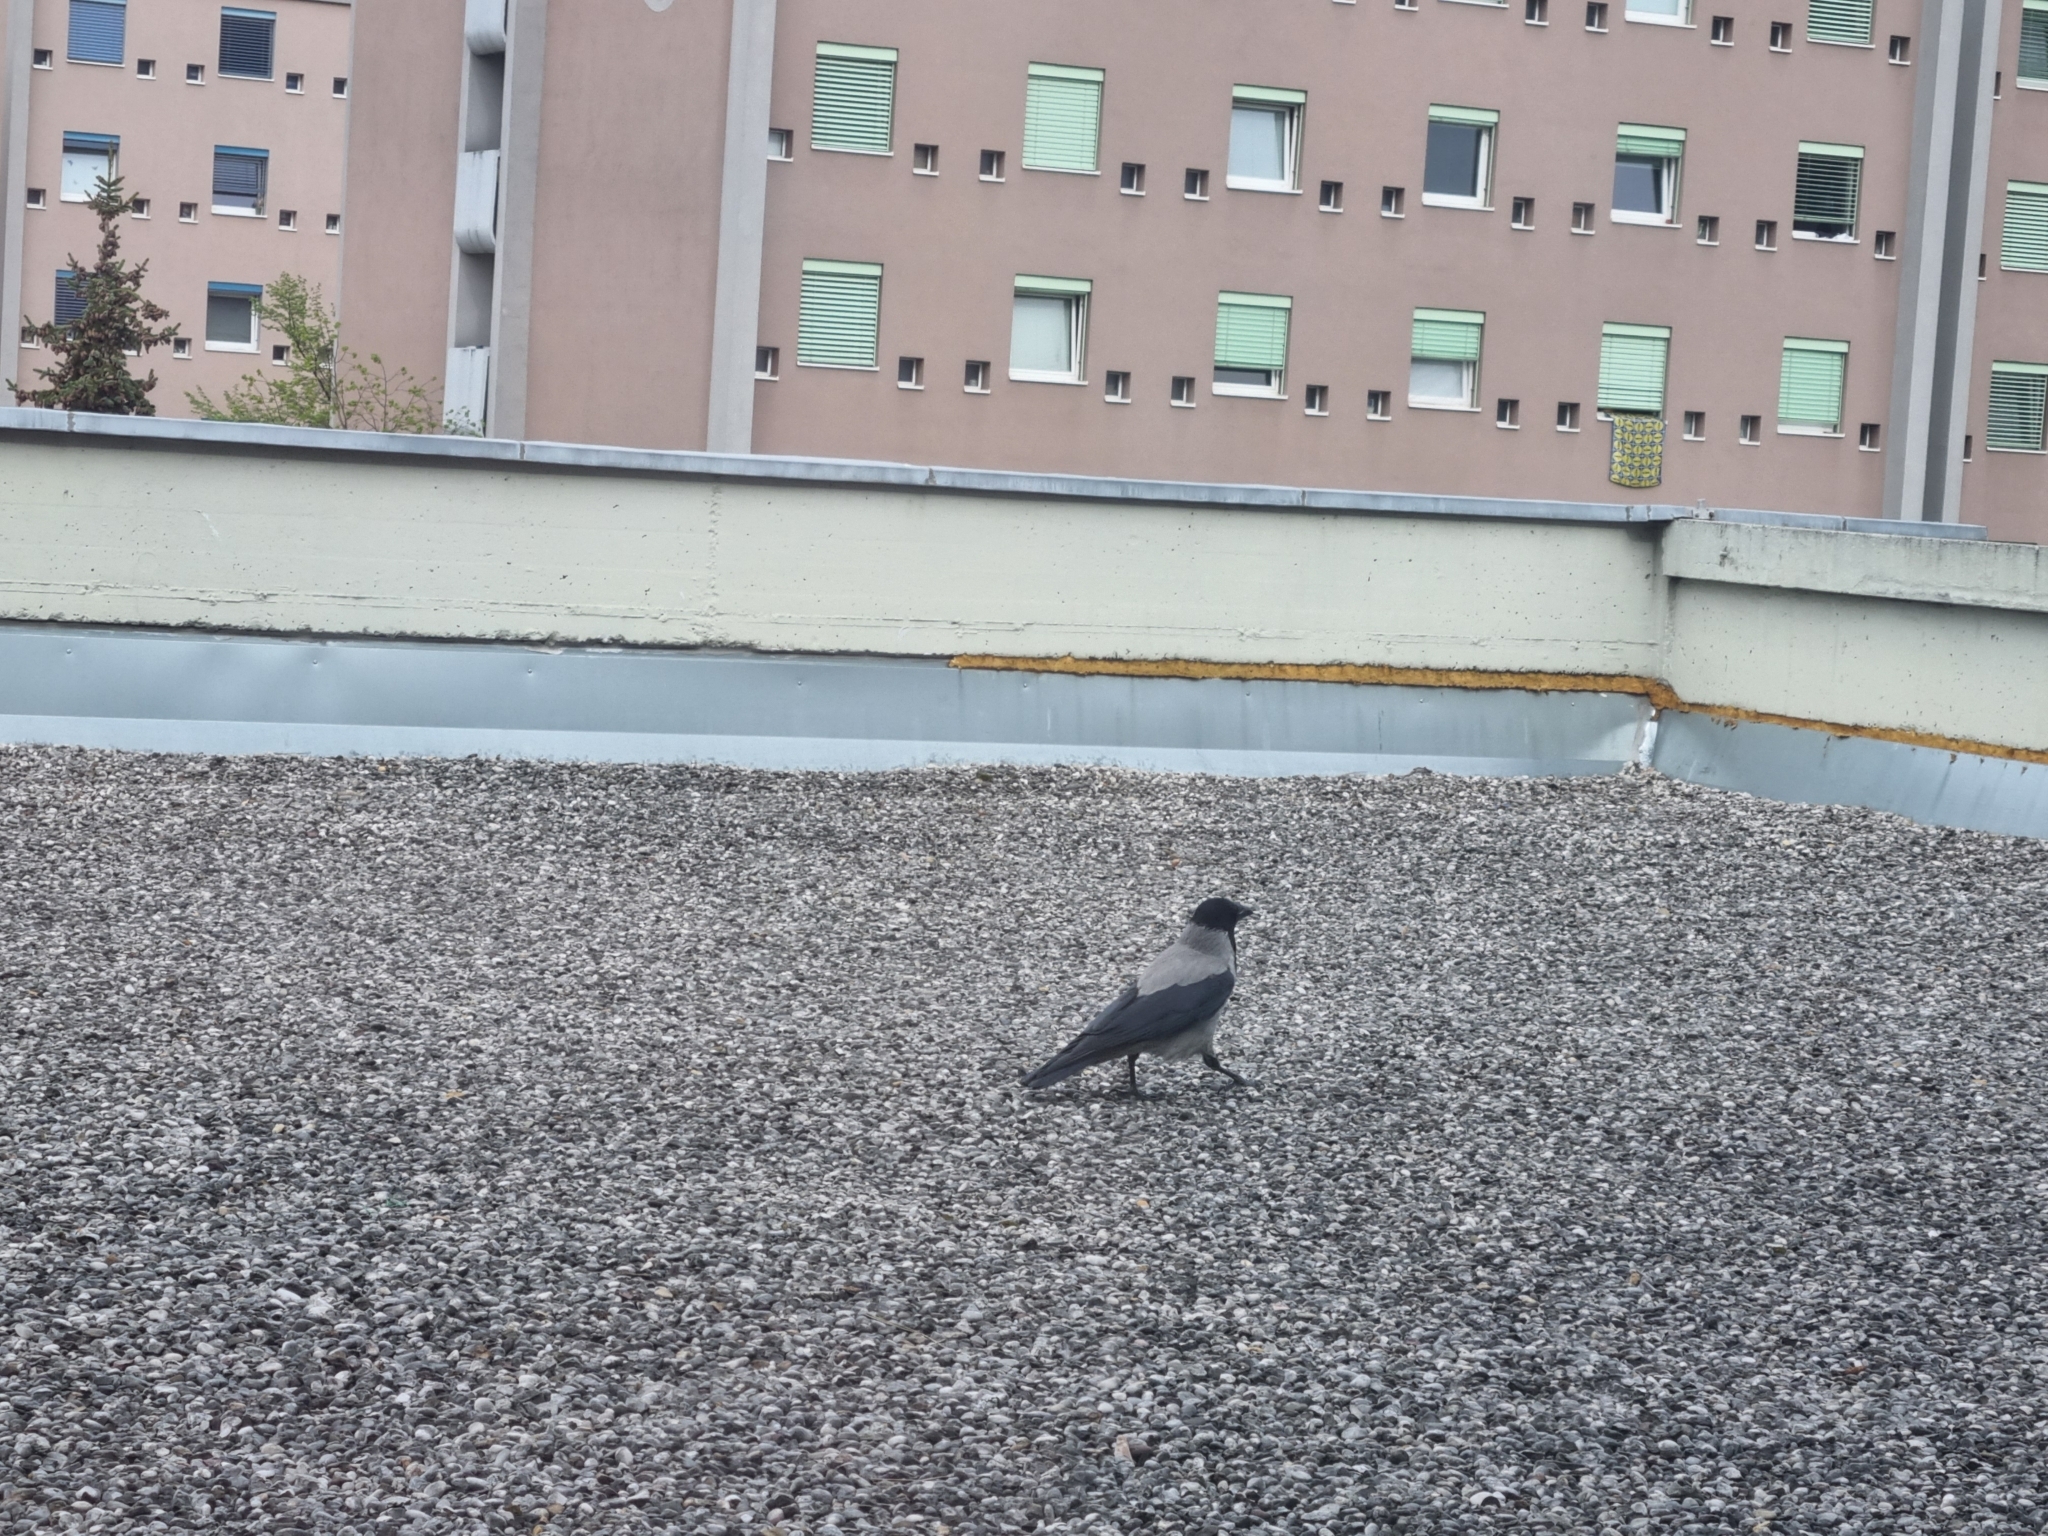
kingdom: Animalia
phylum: Chordata
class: Aves
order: Passeriformes
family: Corvidae
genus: Corvus
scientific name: Corvus cornix
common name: Hooded crow
